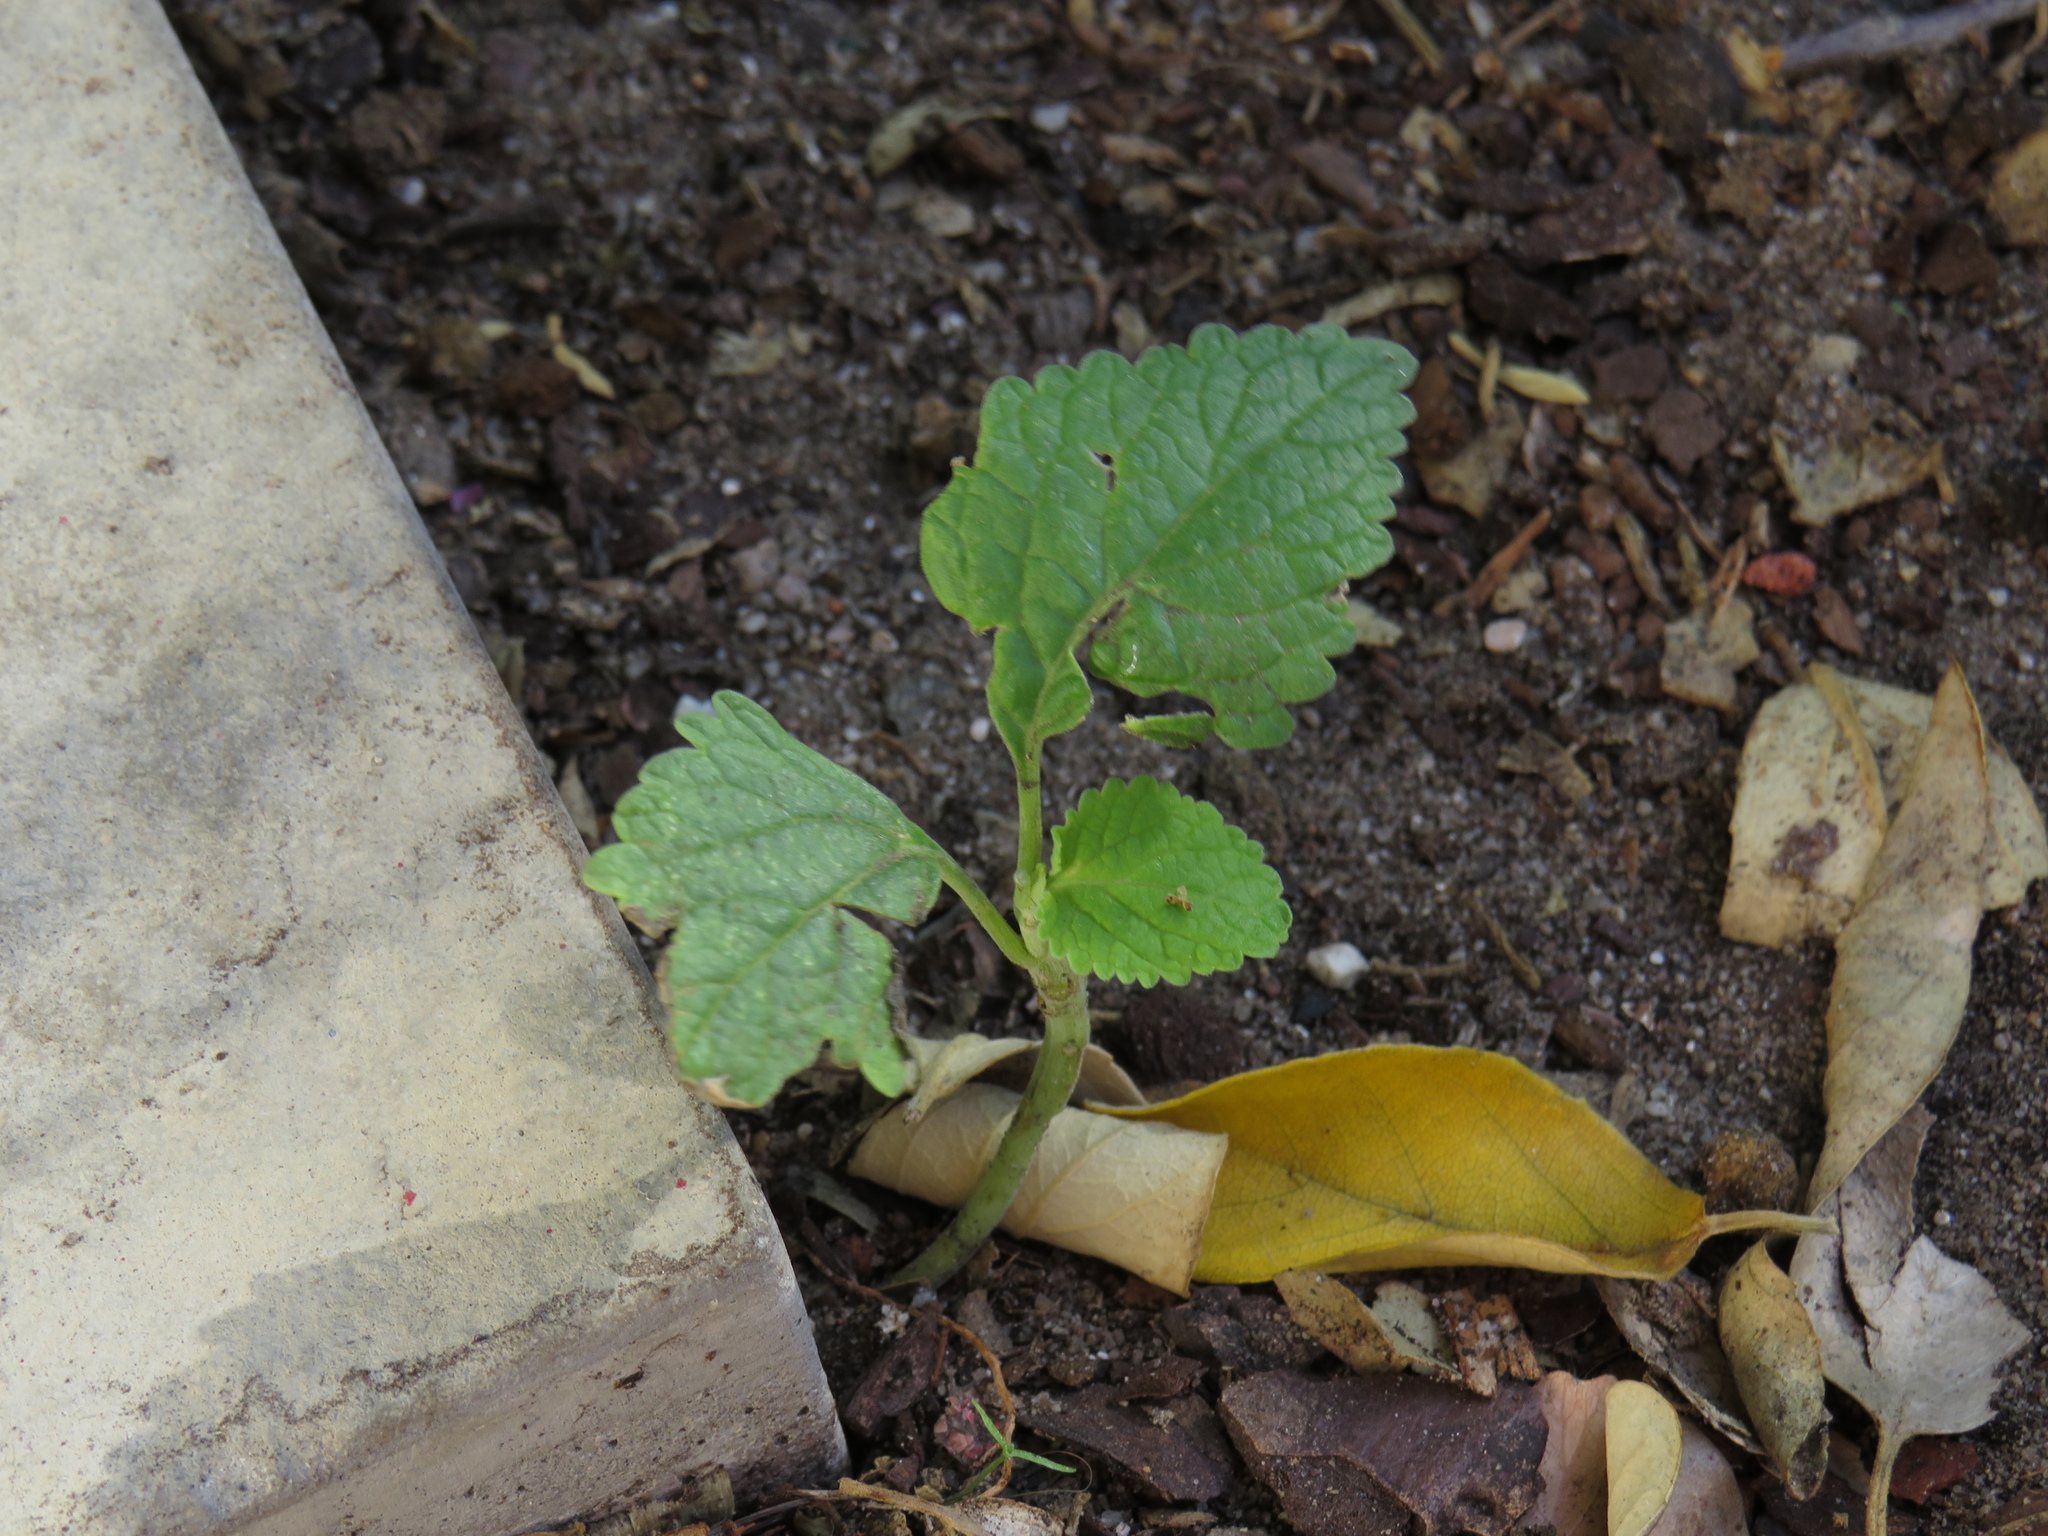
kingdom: Plantae
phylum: Tracheophyta
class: Magnoliopsida
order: Lamiales
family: Lamiaceae
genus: Leonotis
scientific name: Leonotis nepetifolia
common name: Christmas candlestick
